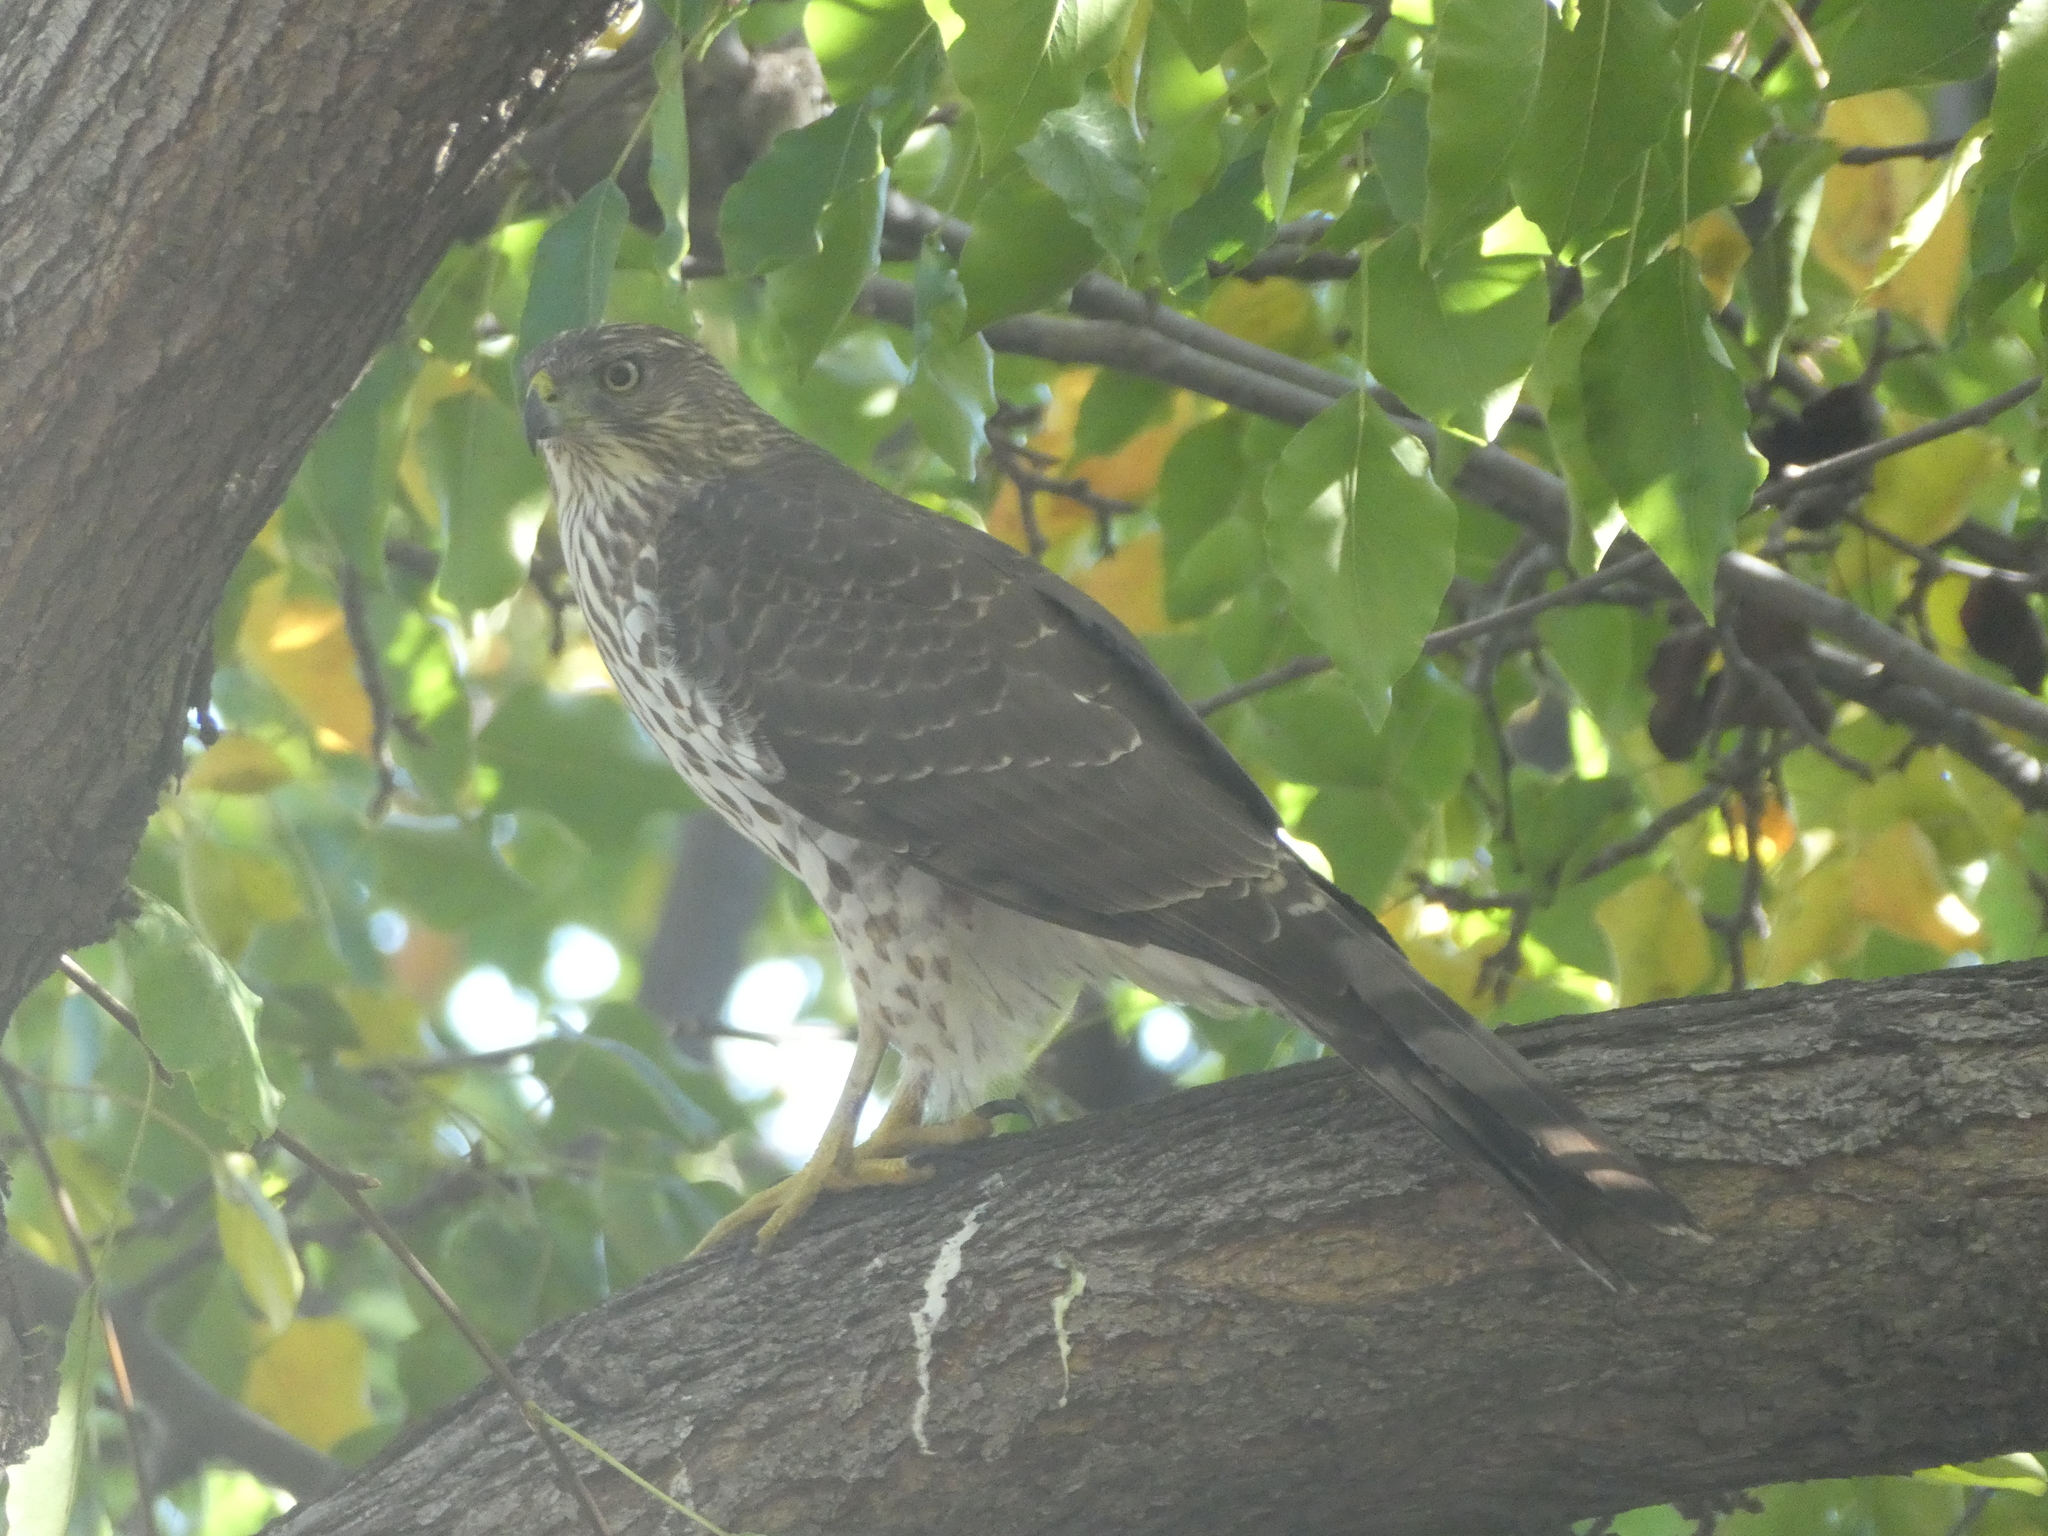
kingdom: Animalia
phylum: Chordata
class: Aves
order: Accipitriformes
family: Accipitridae
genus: Accipiter
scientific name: Accipiter cooperii
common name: Cooper's hawk
